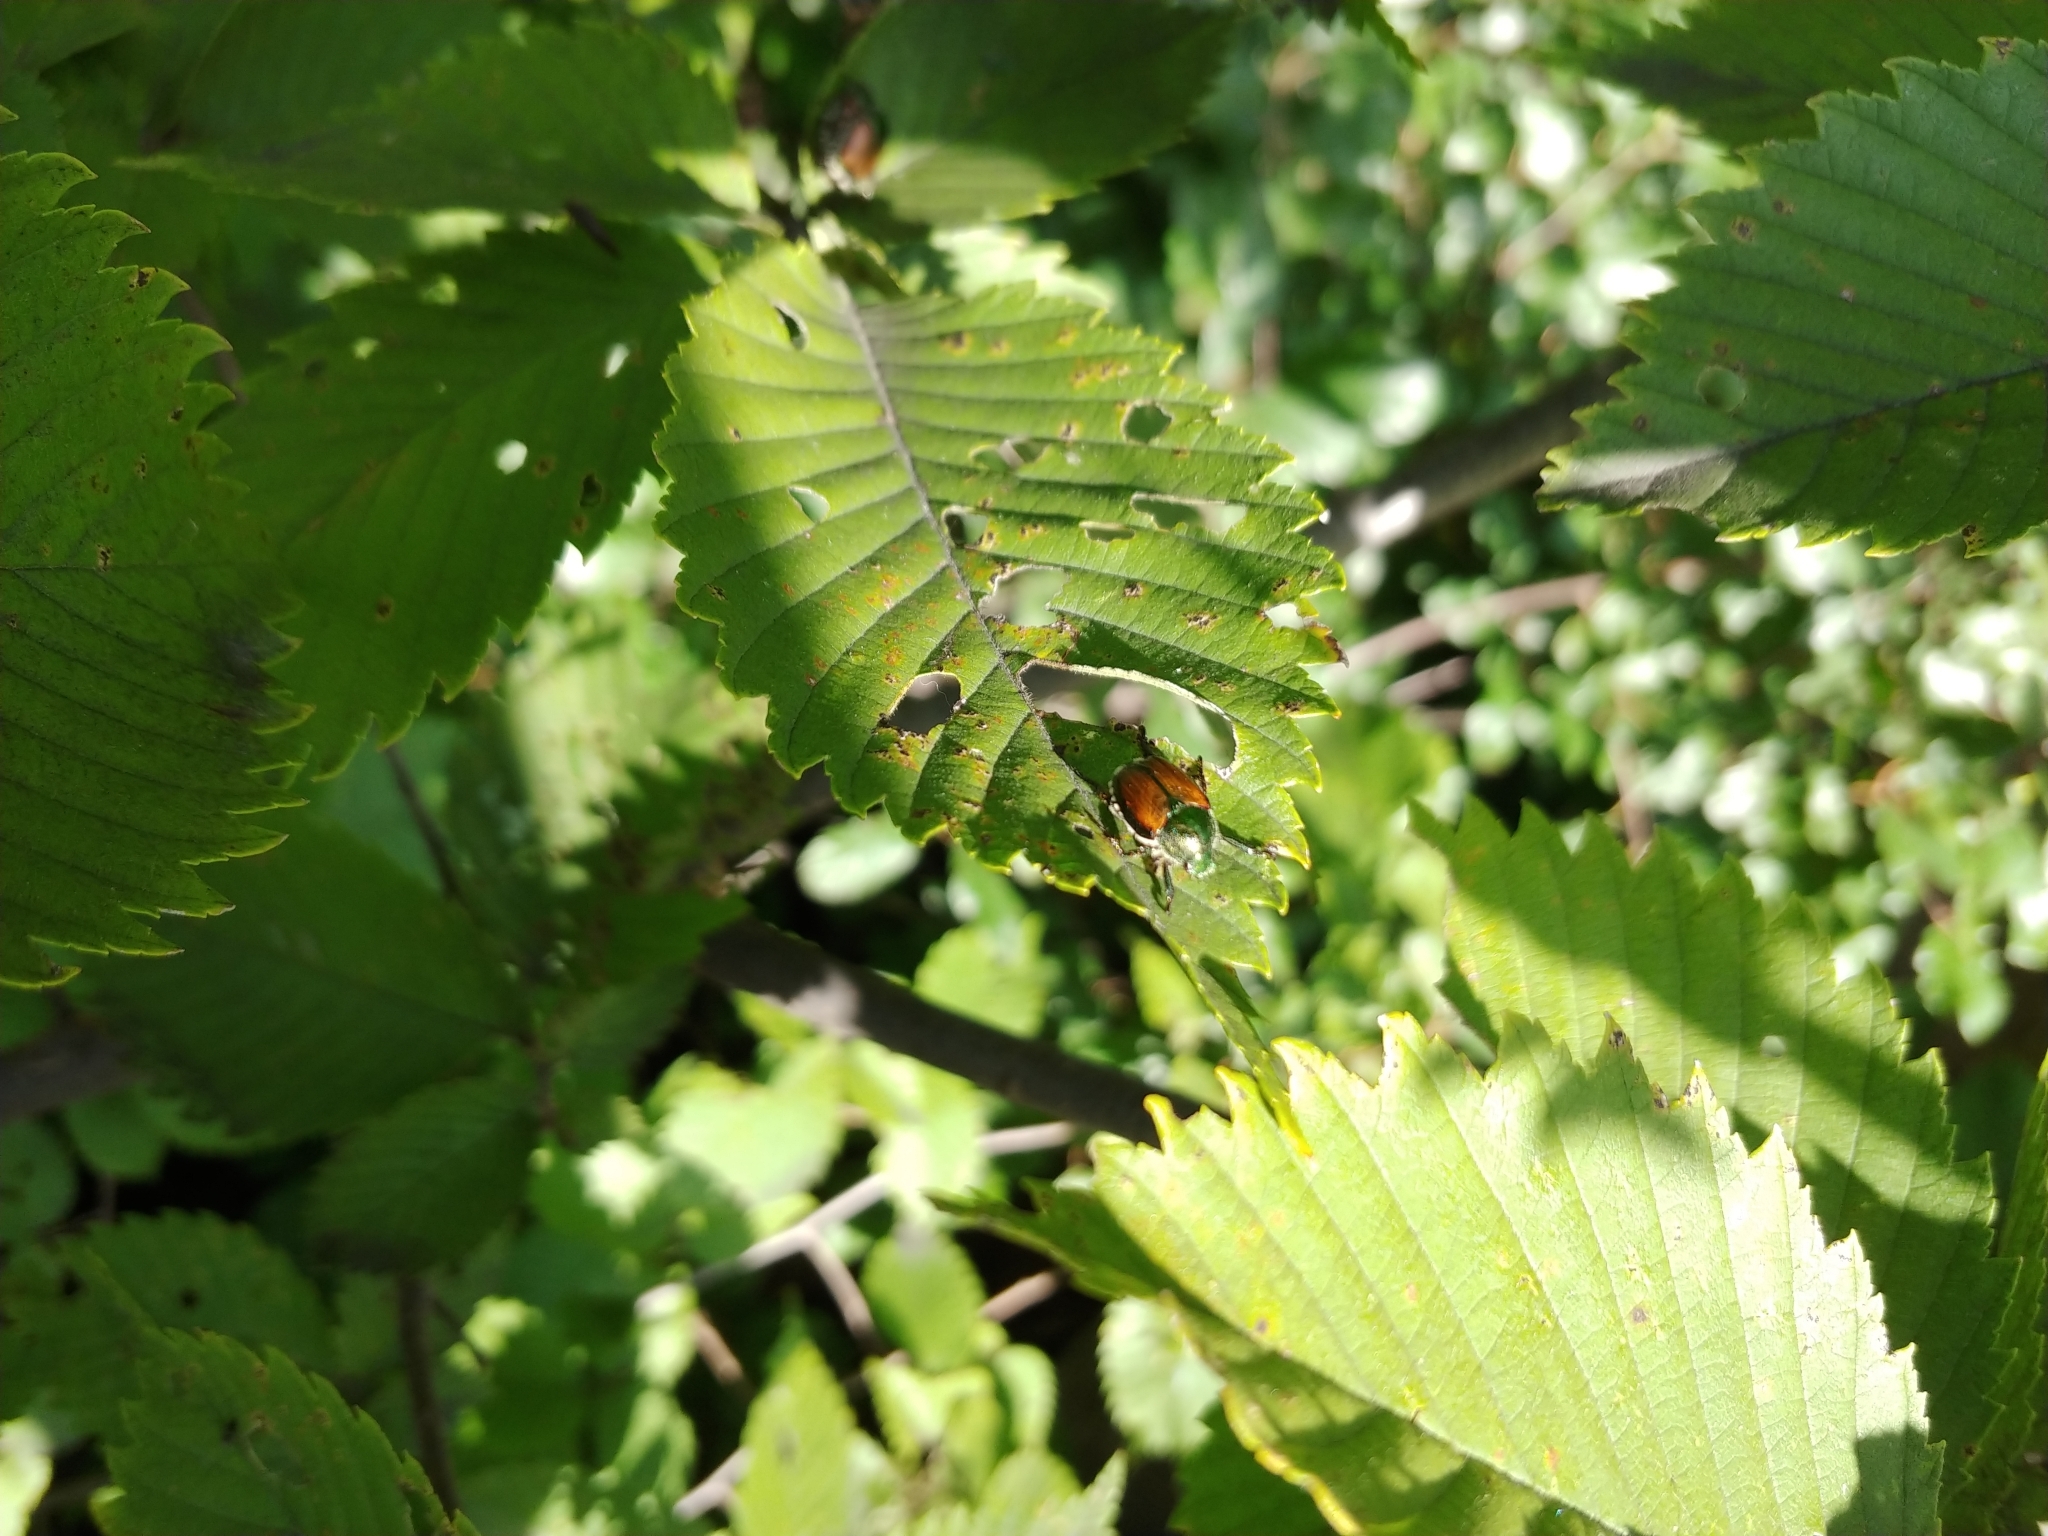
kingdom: Animalia
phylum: Arthropoda
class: Insecta
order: Coleoptera
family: Scarabaeidae
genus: Popillia
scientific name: Popillia japonica
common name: Japanese beetle
